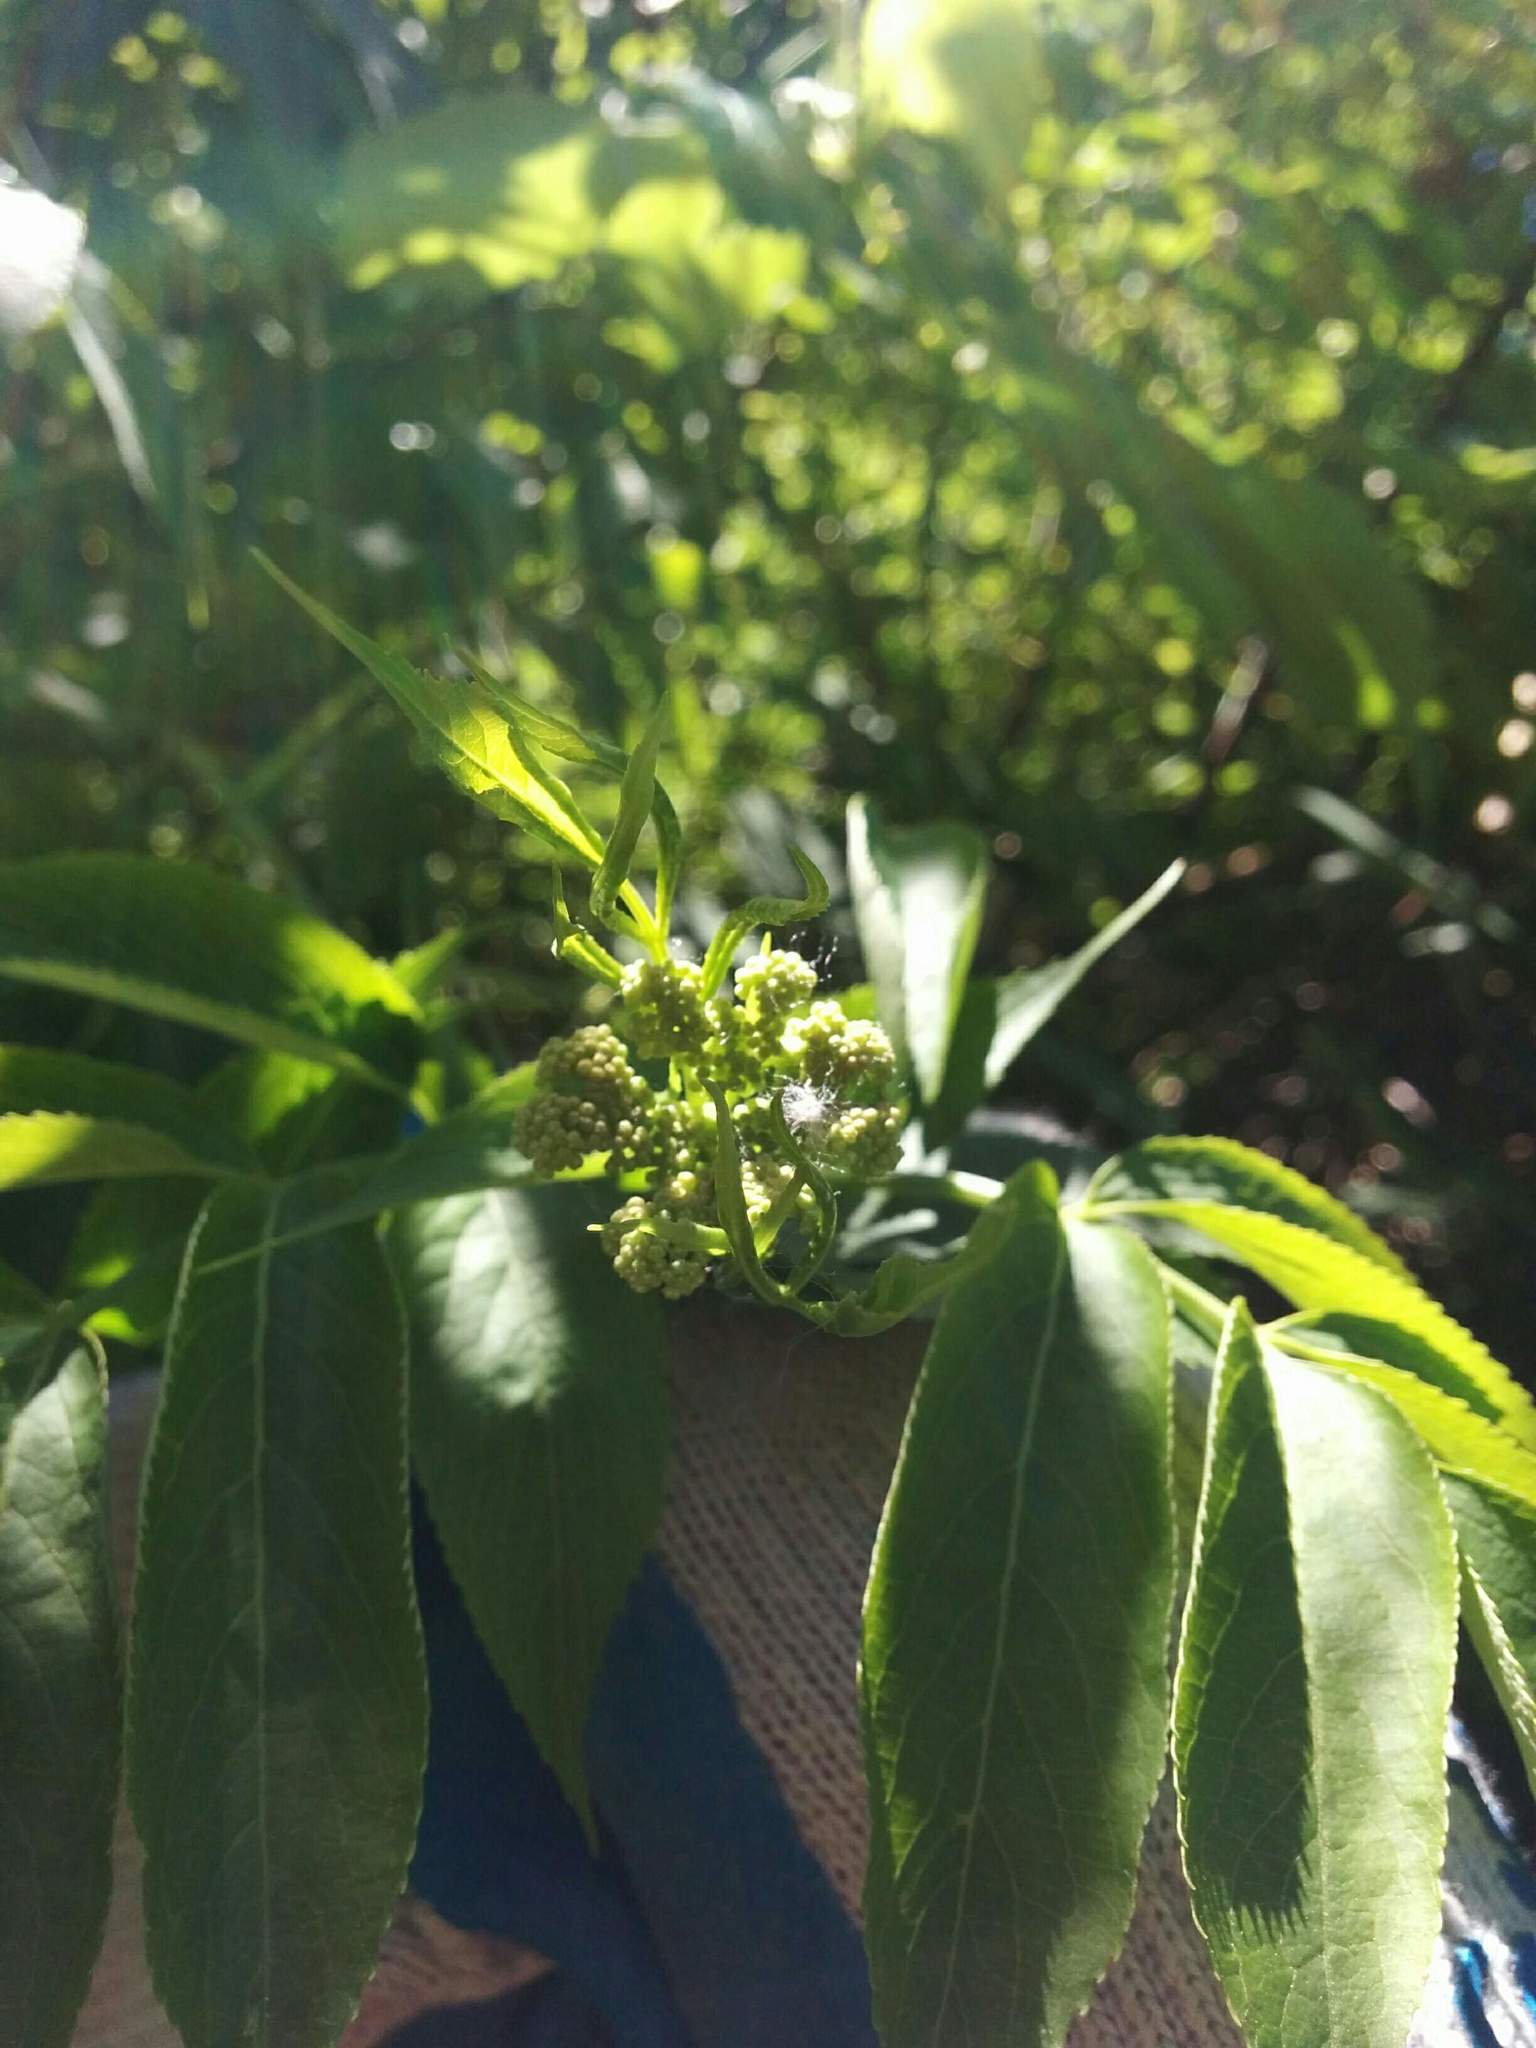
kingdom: Plantae
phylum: Tracheophyta
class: Magnoliopsida
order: Dipsacales
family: Viburnaceae
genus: Sambucus
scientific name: Sambucus cerulea
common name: Blue elder
